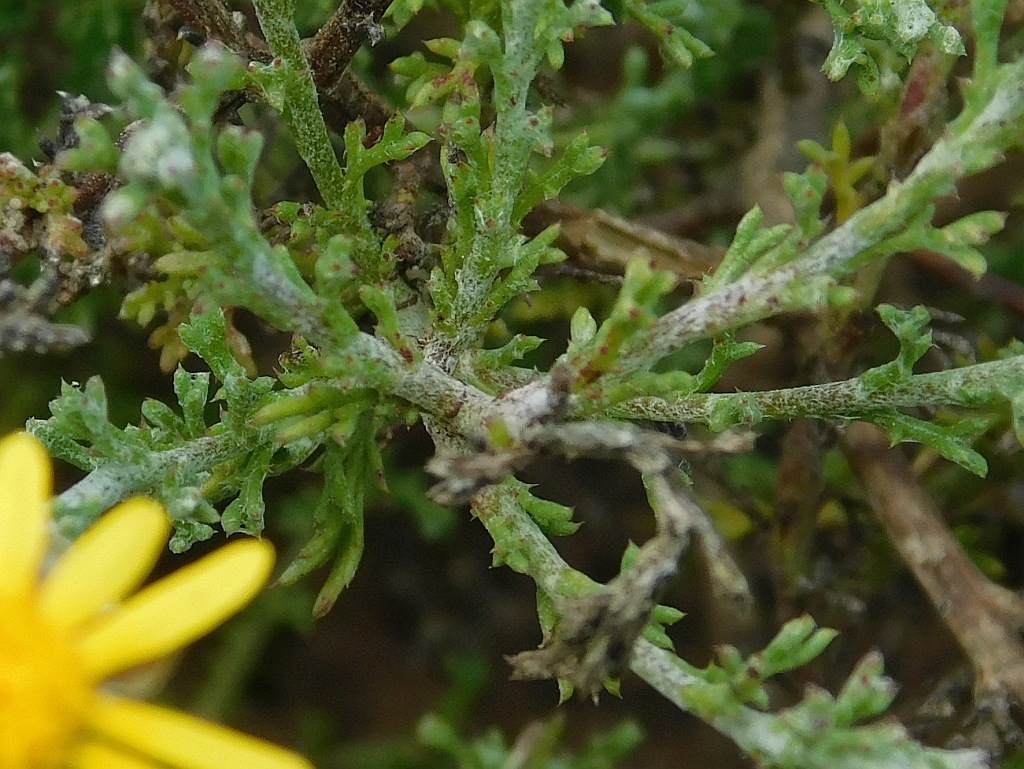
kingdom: Plantae
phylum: Tracheophyta
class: Magnoliopsida
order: Asterales
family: Asteraceae
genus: Ursinia
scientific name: Ursinia discolor
